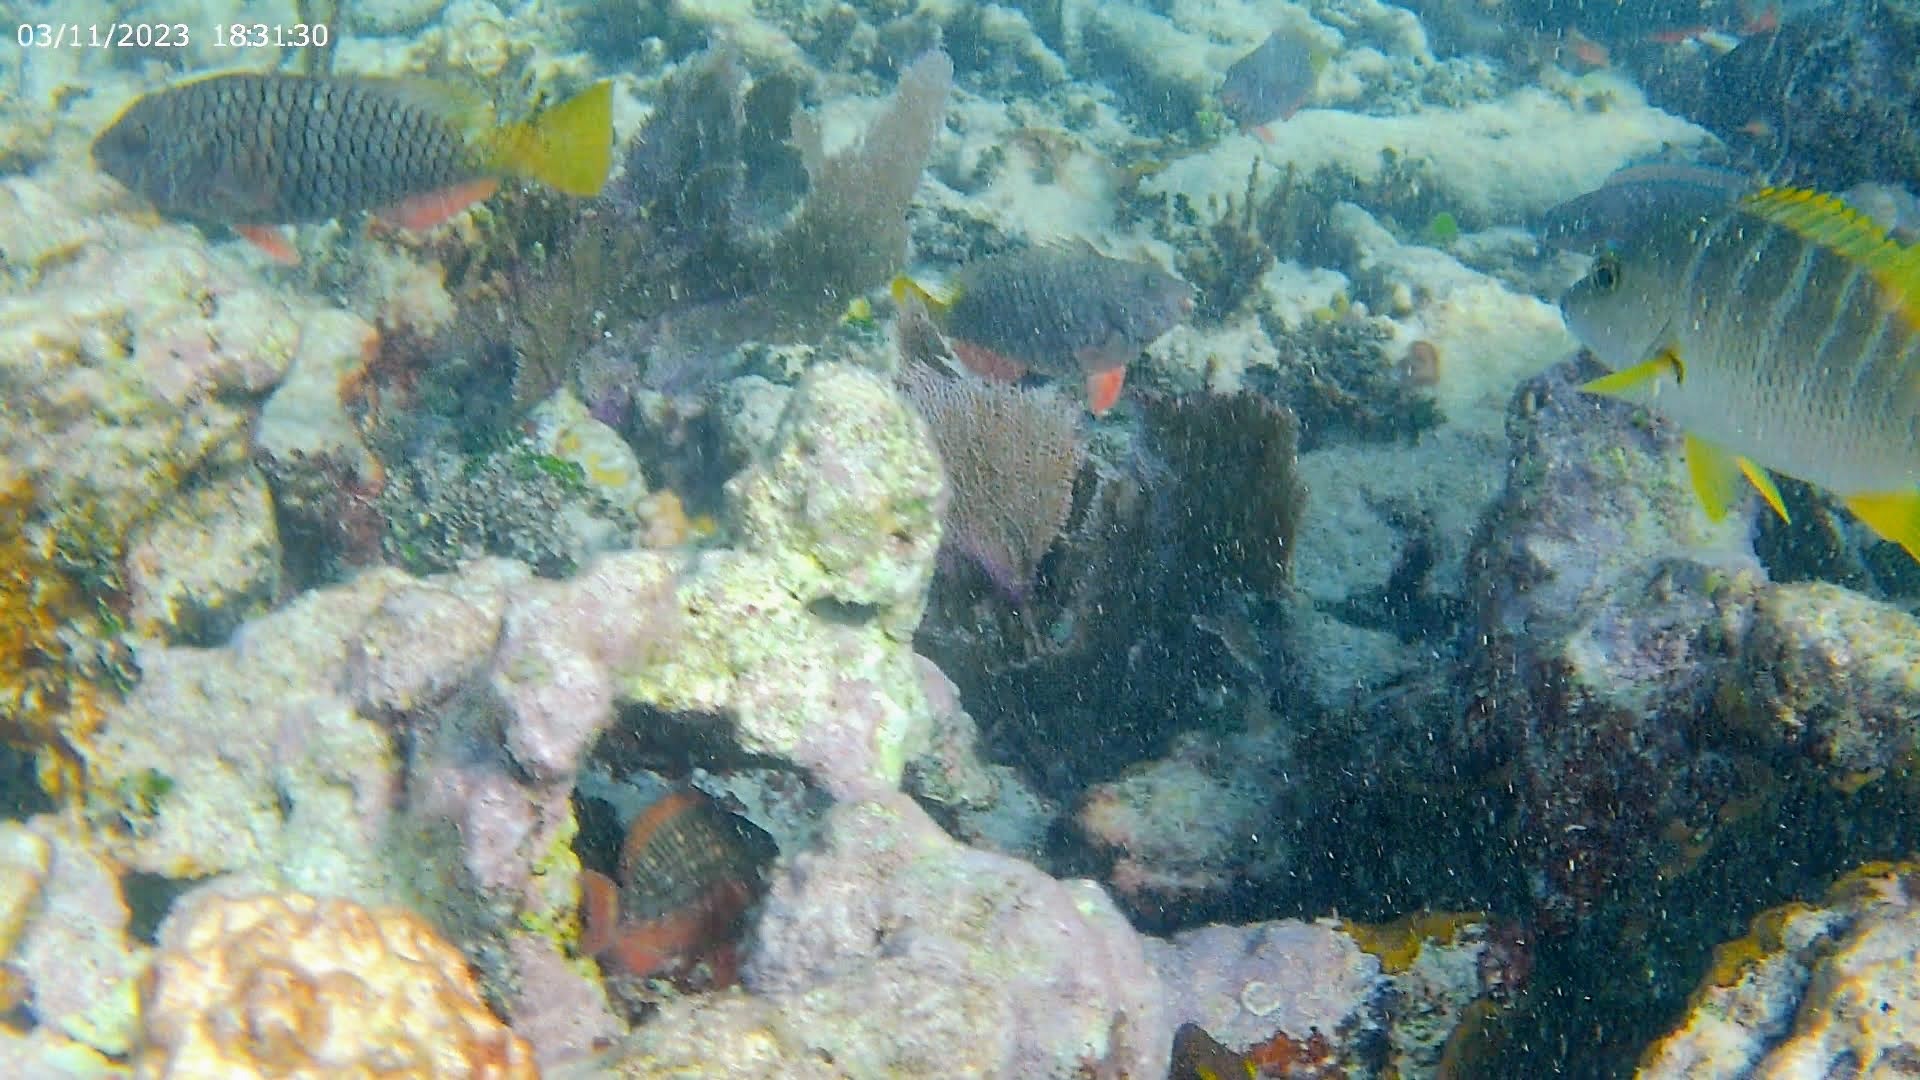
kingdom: Animalia
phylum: Chordata
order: Perciformes
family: Scaridae
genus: Sparisoma
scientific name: Sparisoma rubripinne
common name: Redfin parrotfish
